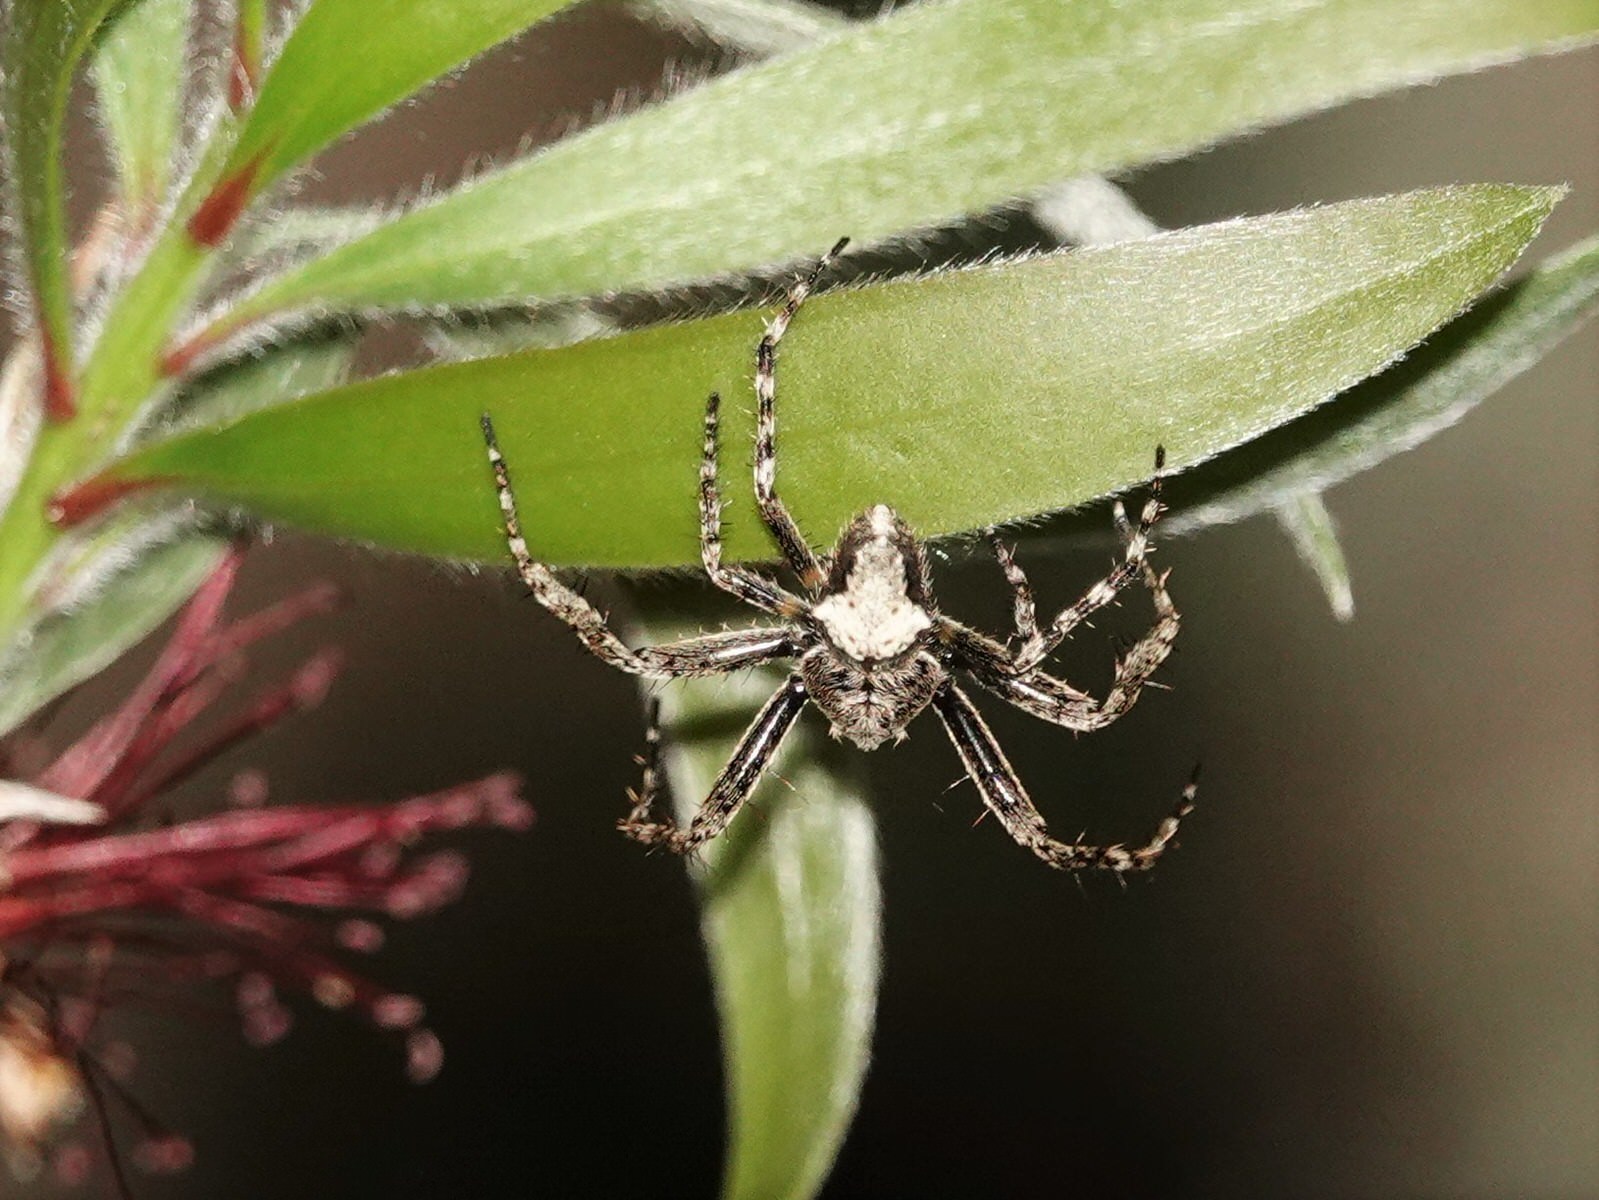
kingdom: Animalia
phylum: Arthropoda
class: Arachnida
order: Araneae
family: Araneidae
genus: Eriophora
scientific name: Eriophora pustulosa
